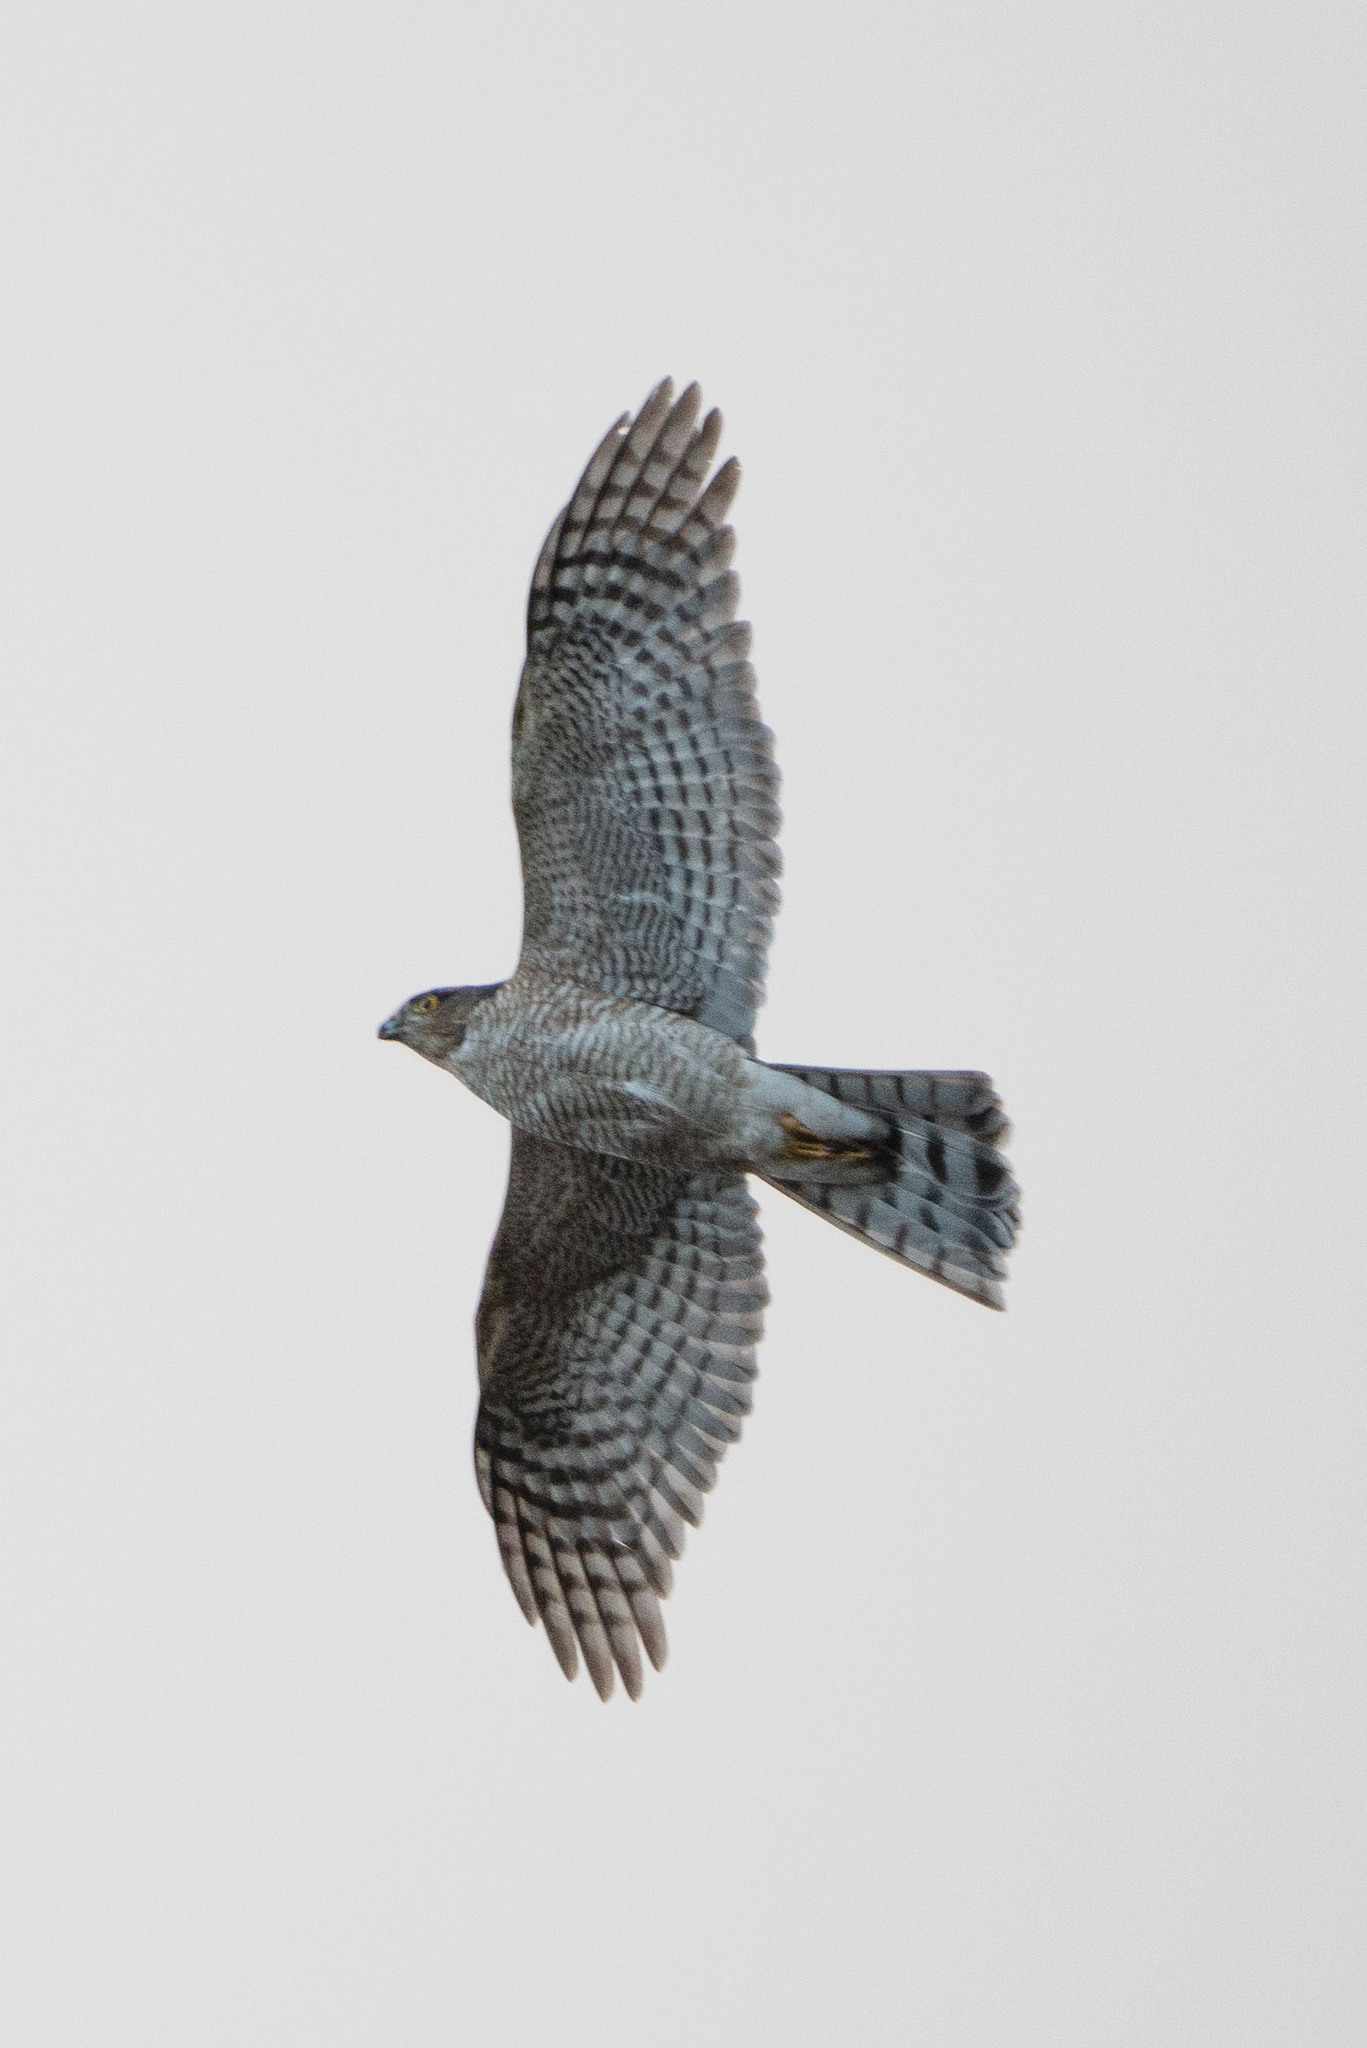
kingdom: Animalia
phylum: Chordata
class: Aves
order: Accipitriformes
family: Accipitridae
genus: Accipiter
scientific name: Accipiter nisus
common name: Eurasian sparrowhawk
